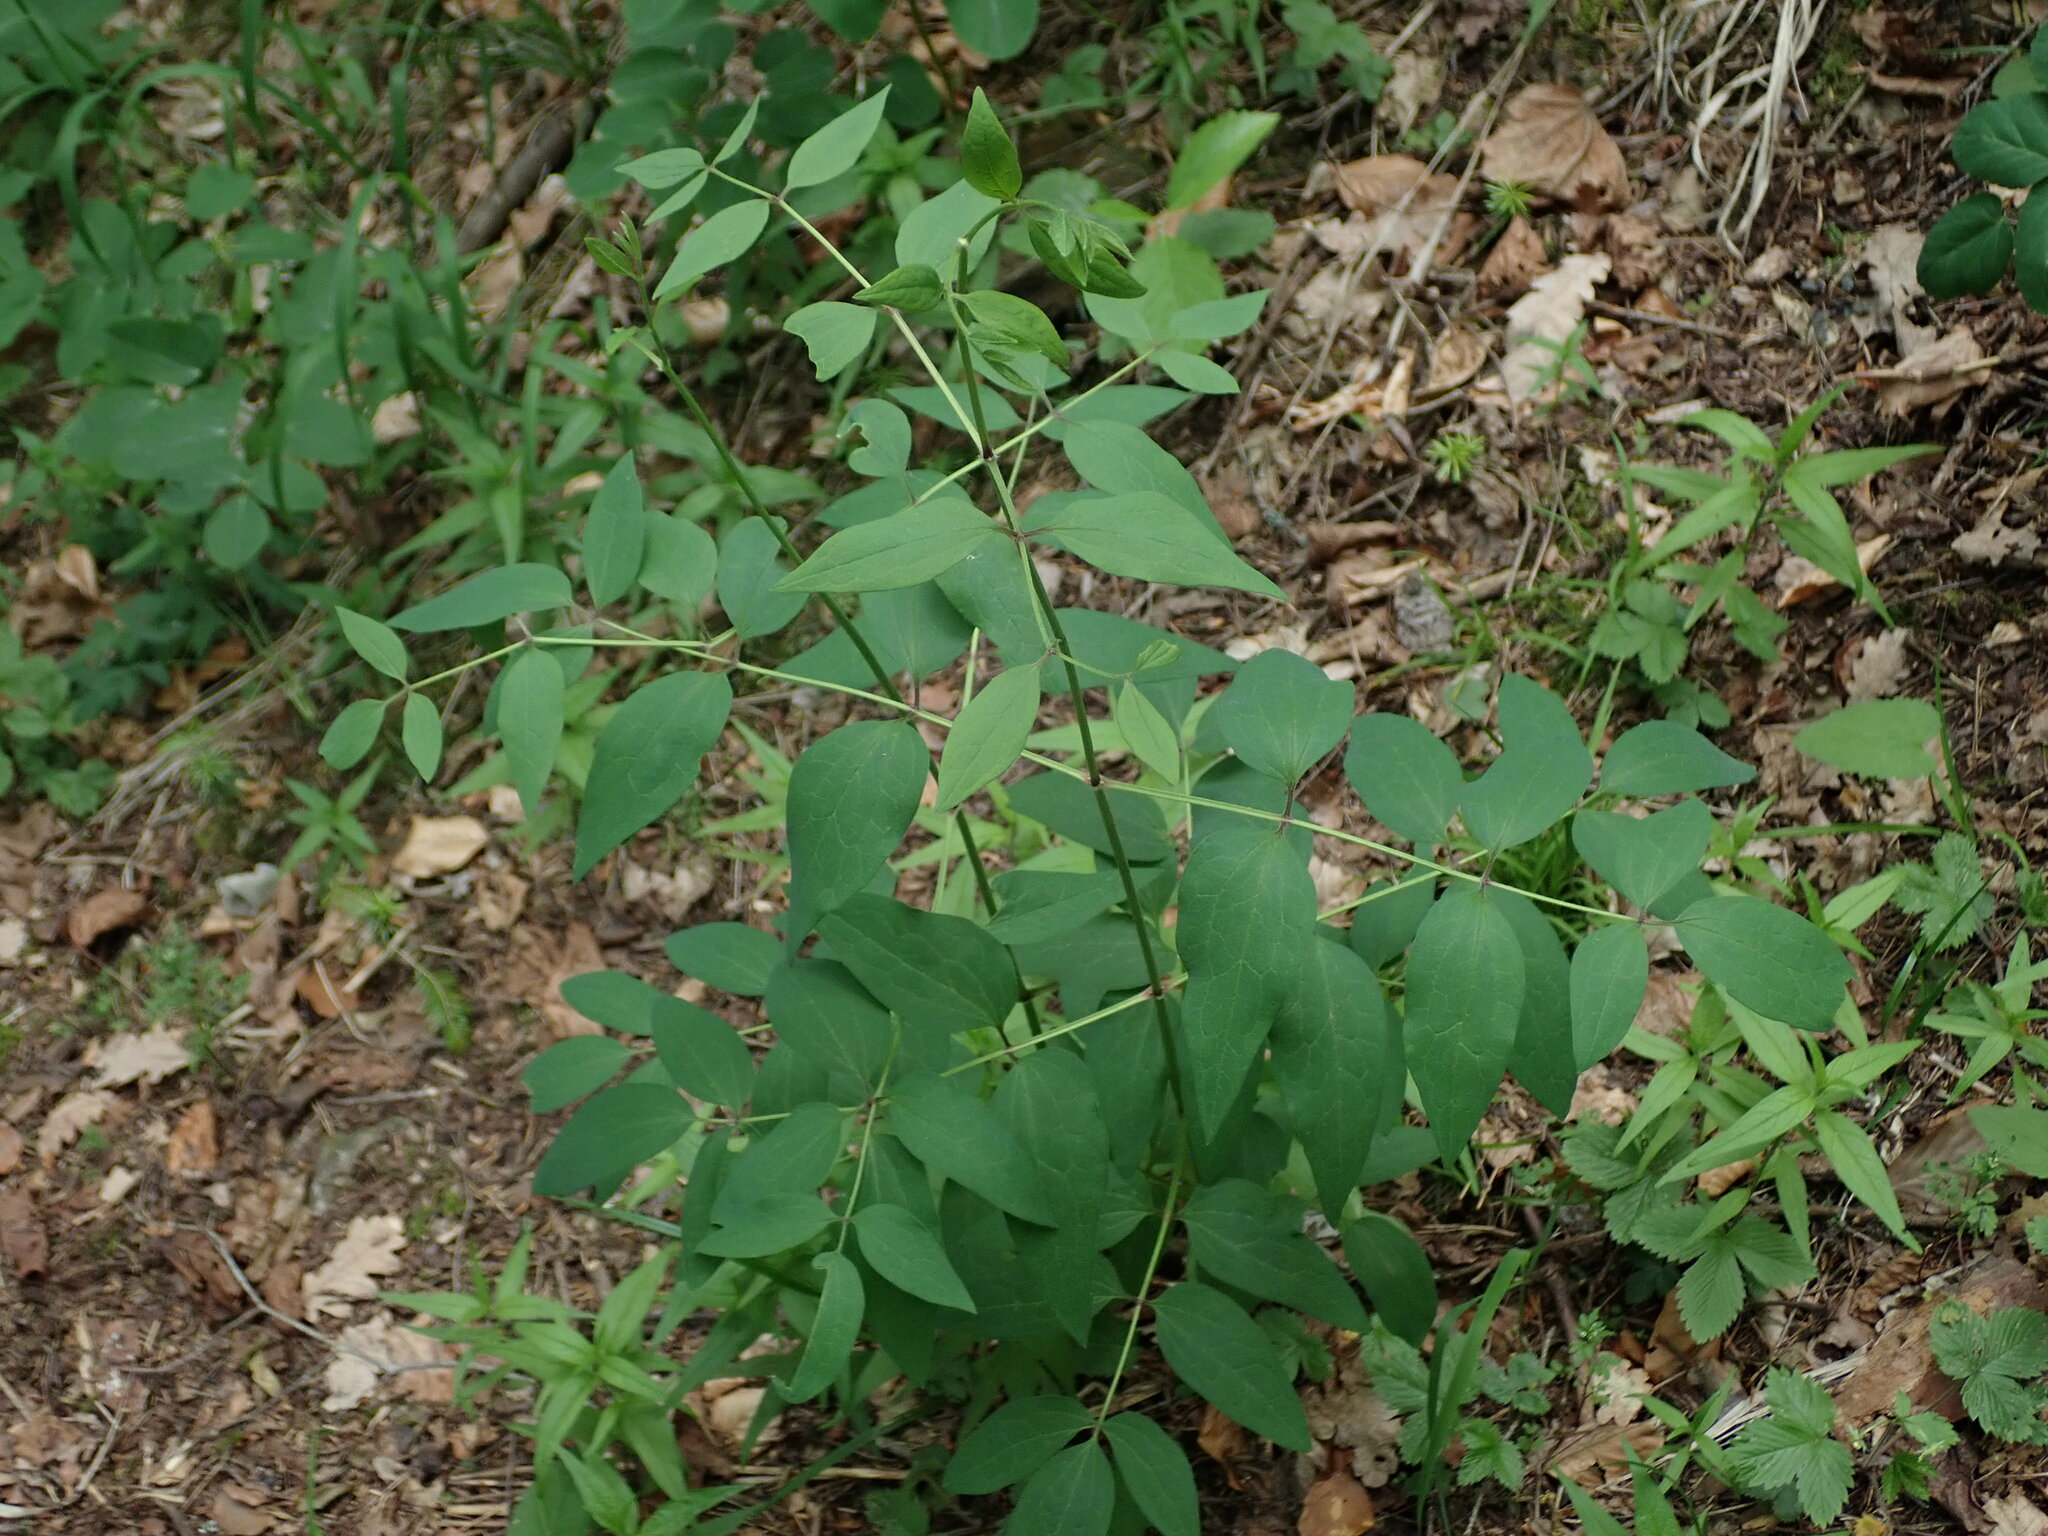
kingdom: Plantae
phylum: Tracheophyta
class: Magnoliopsida
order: Ranunculales
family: Ranunculaceae
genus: Clematis
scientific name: Clematis recta
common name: Ground clematis
